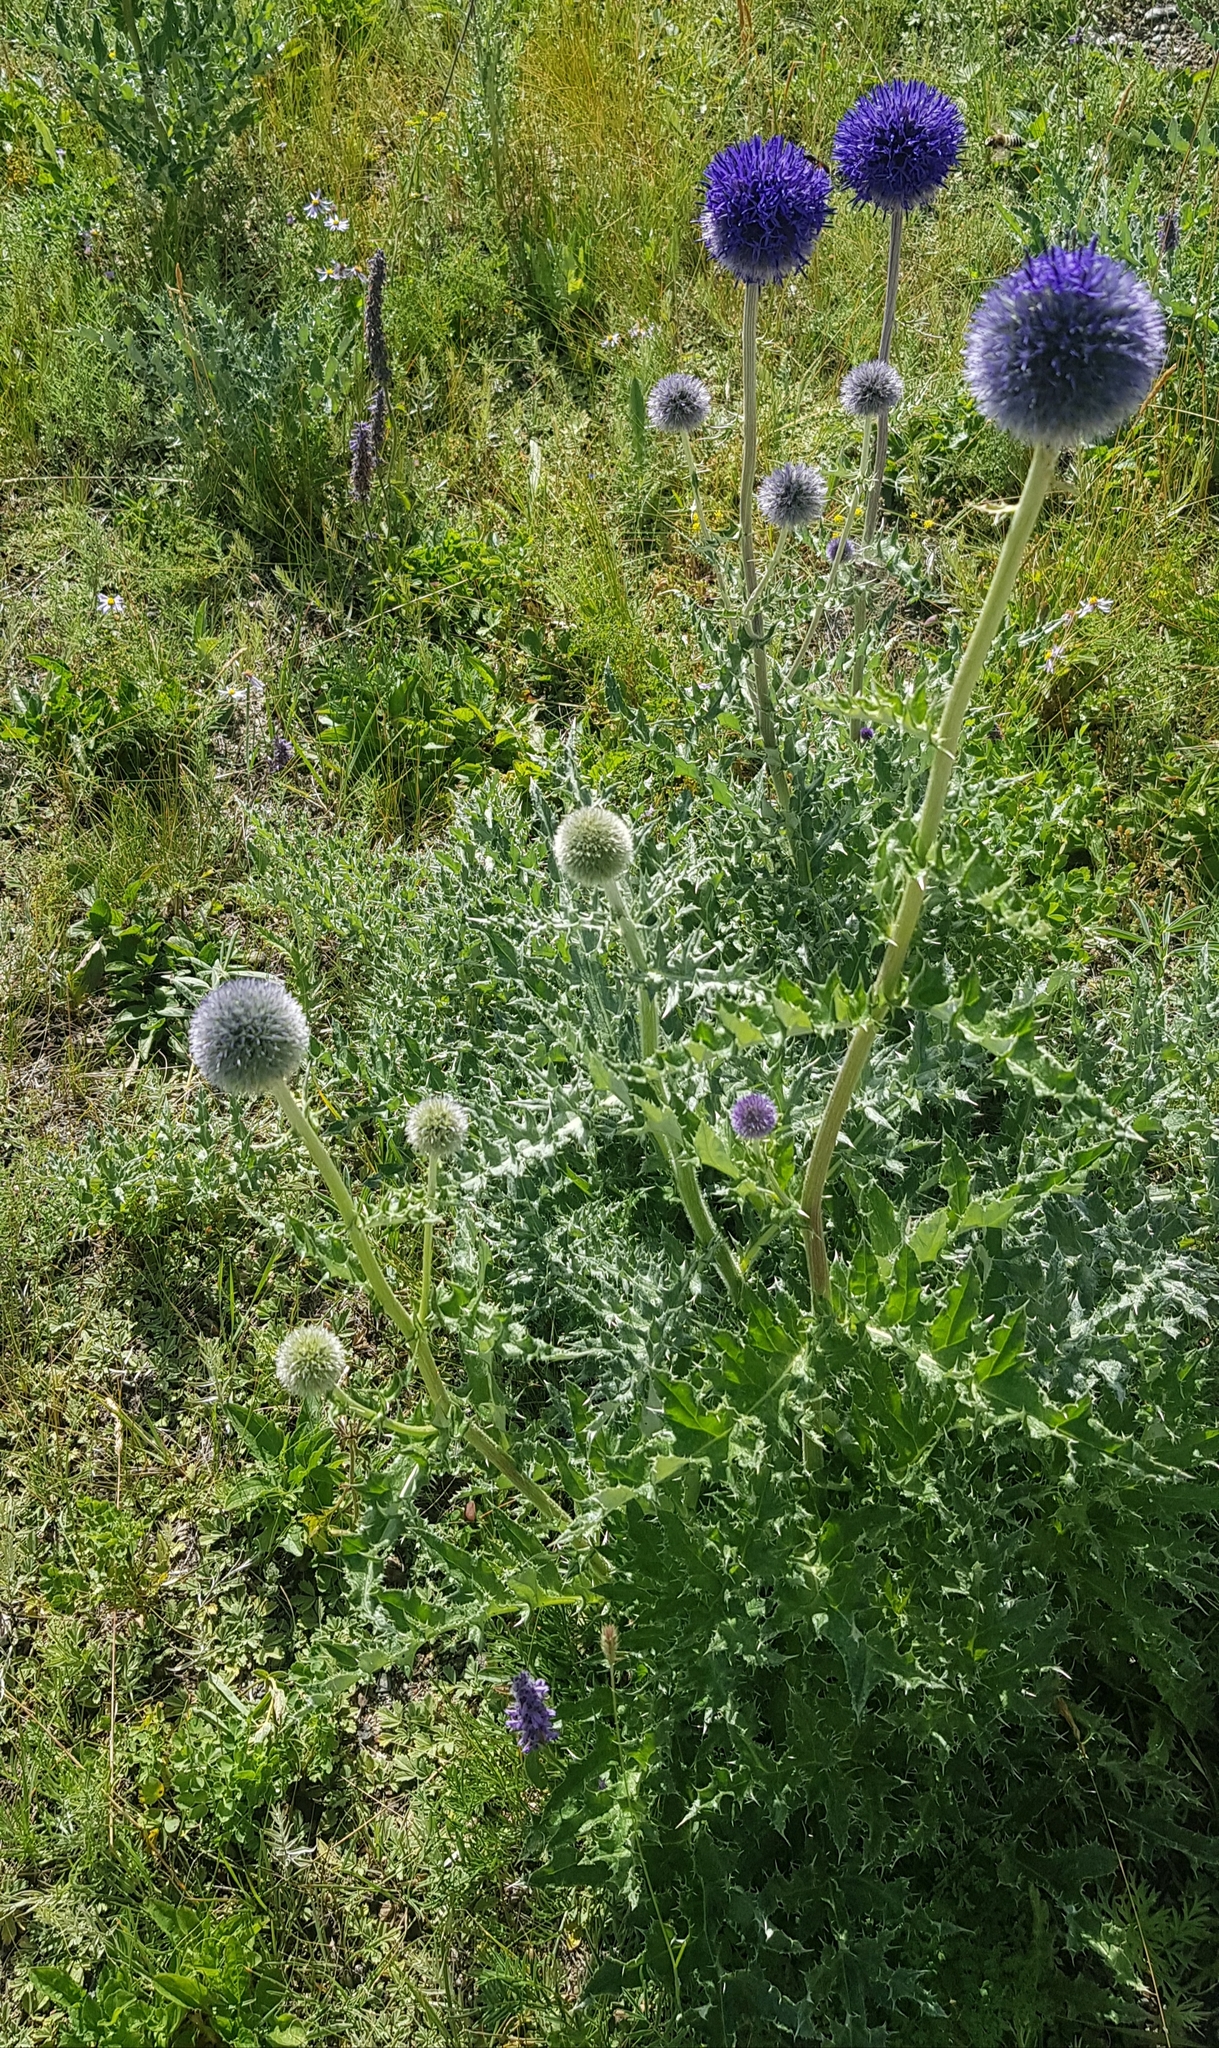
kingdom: Plantae
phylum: Tracheophyta
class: Magnoliopsida
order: Asterales
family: Asteraceae
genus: Echinops
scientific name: Echinops davuricus
